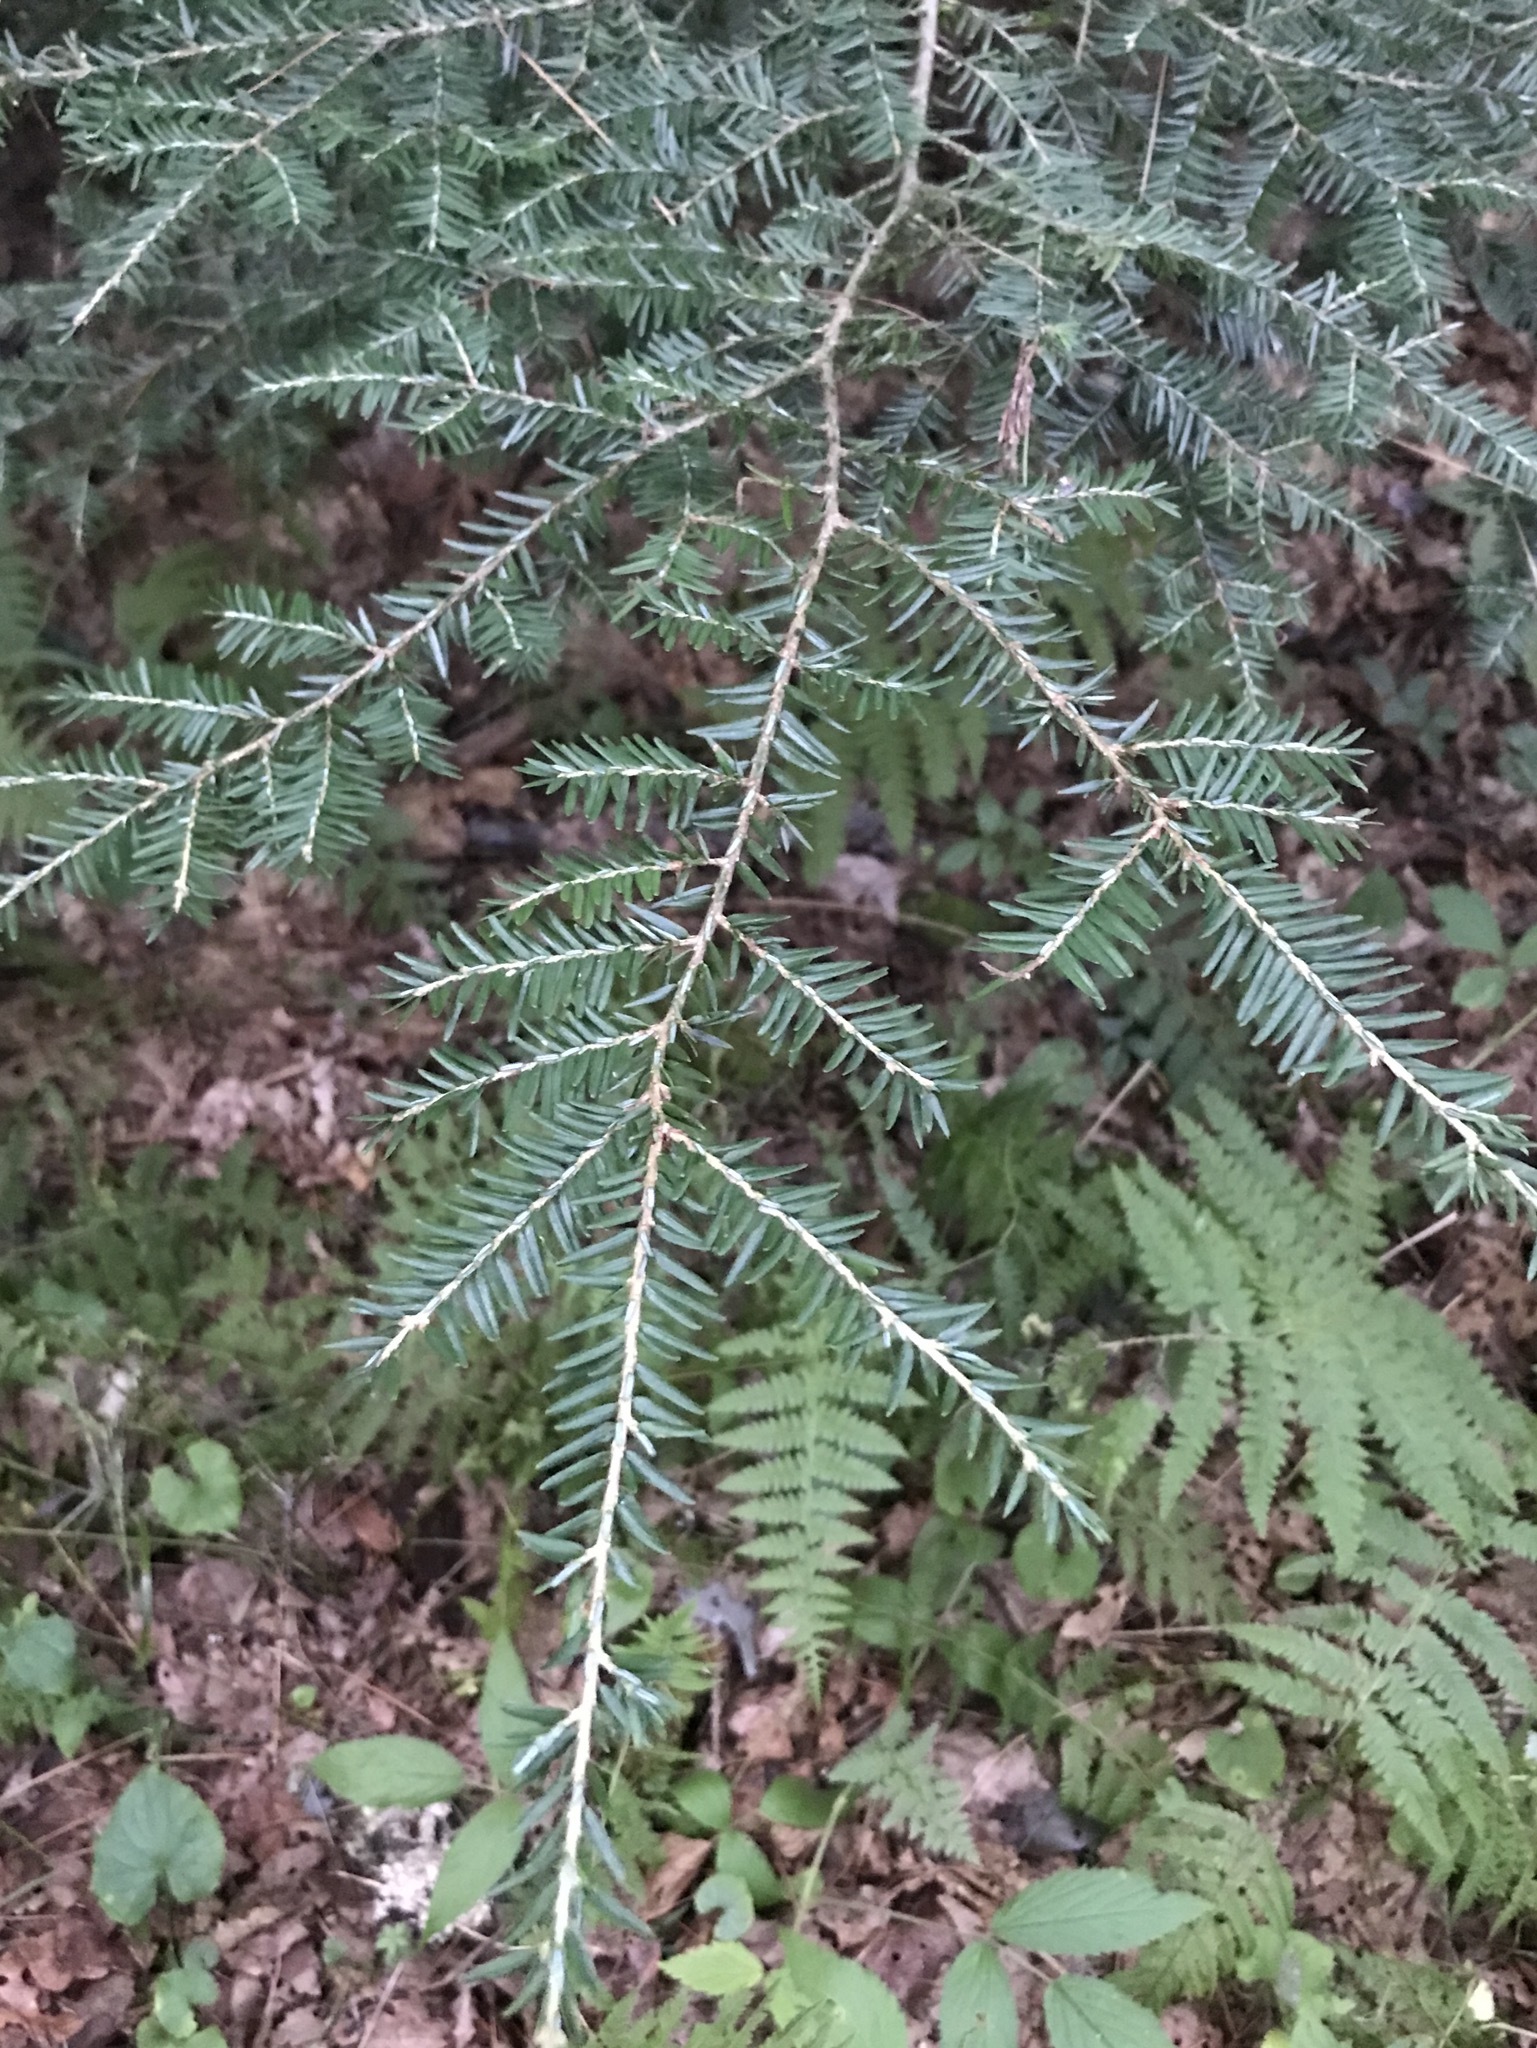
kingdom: Plantae
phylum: Tracheophyta
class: Pinopsida
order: Pinales
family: Pinaceae
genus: Tsuga
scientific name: Tsuga canadensis
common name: Eastern hemlock
